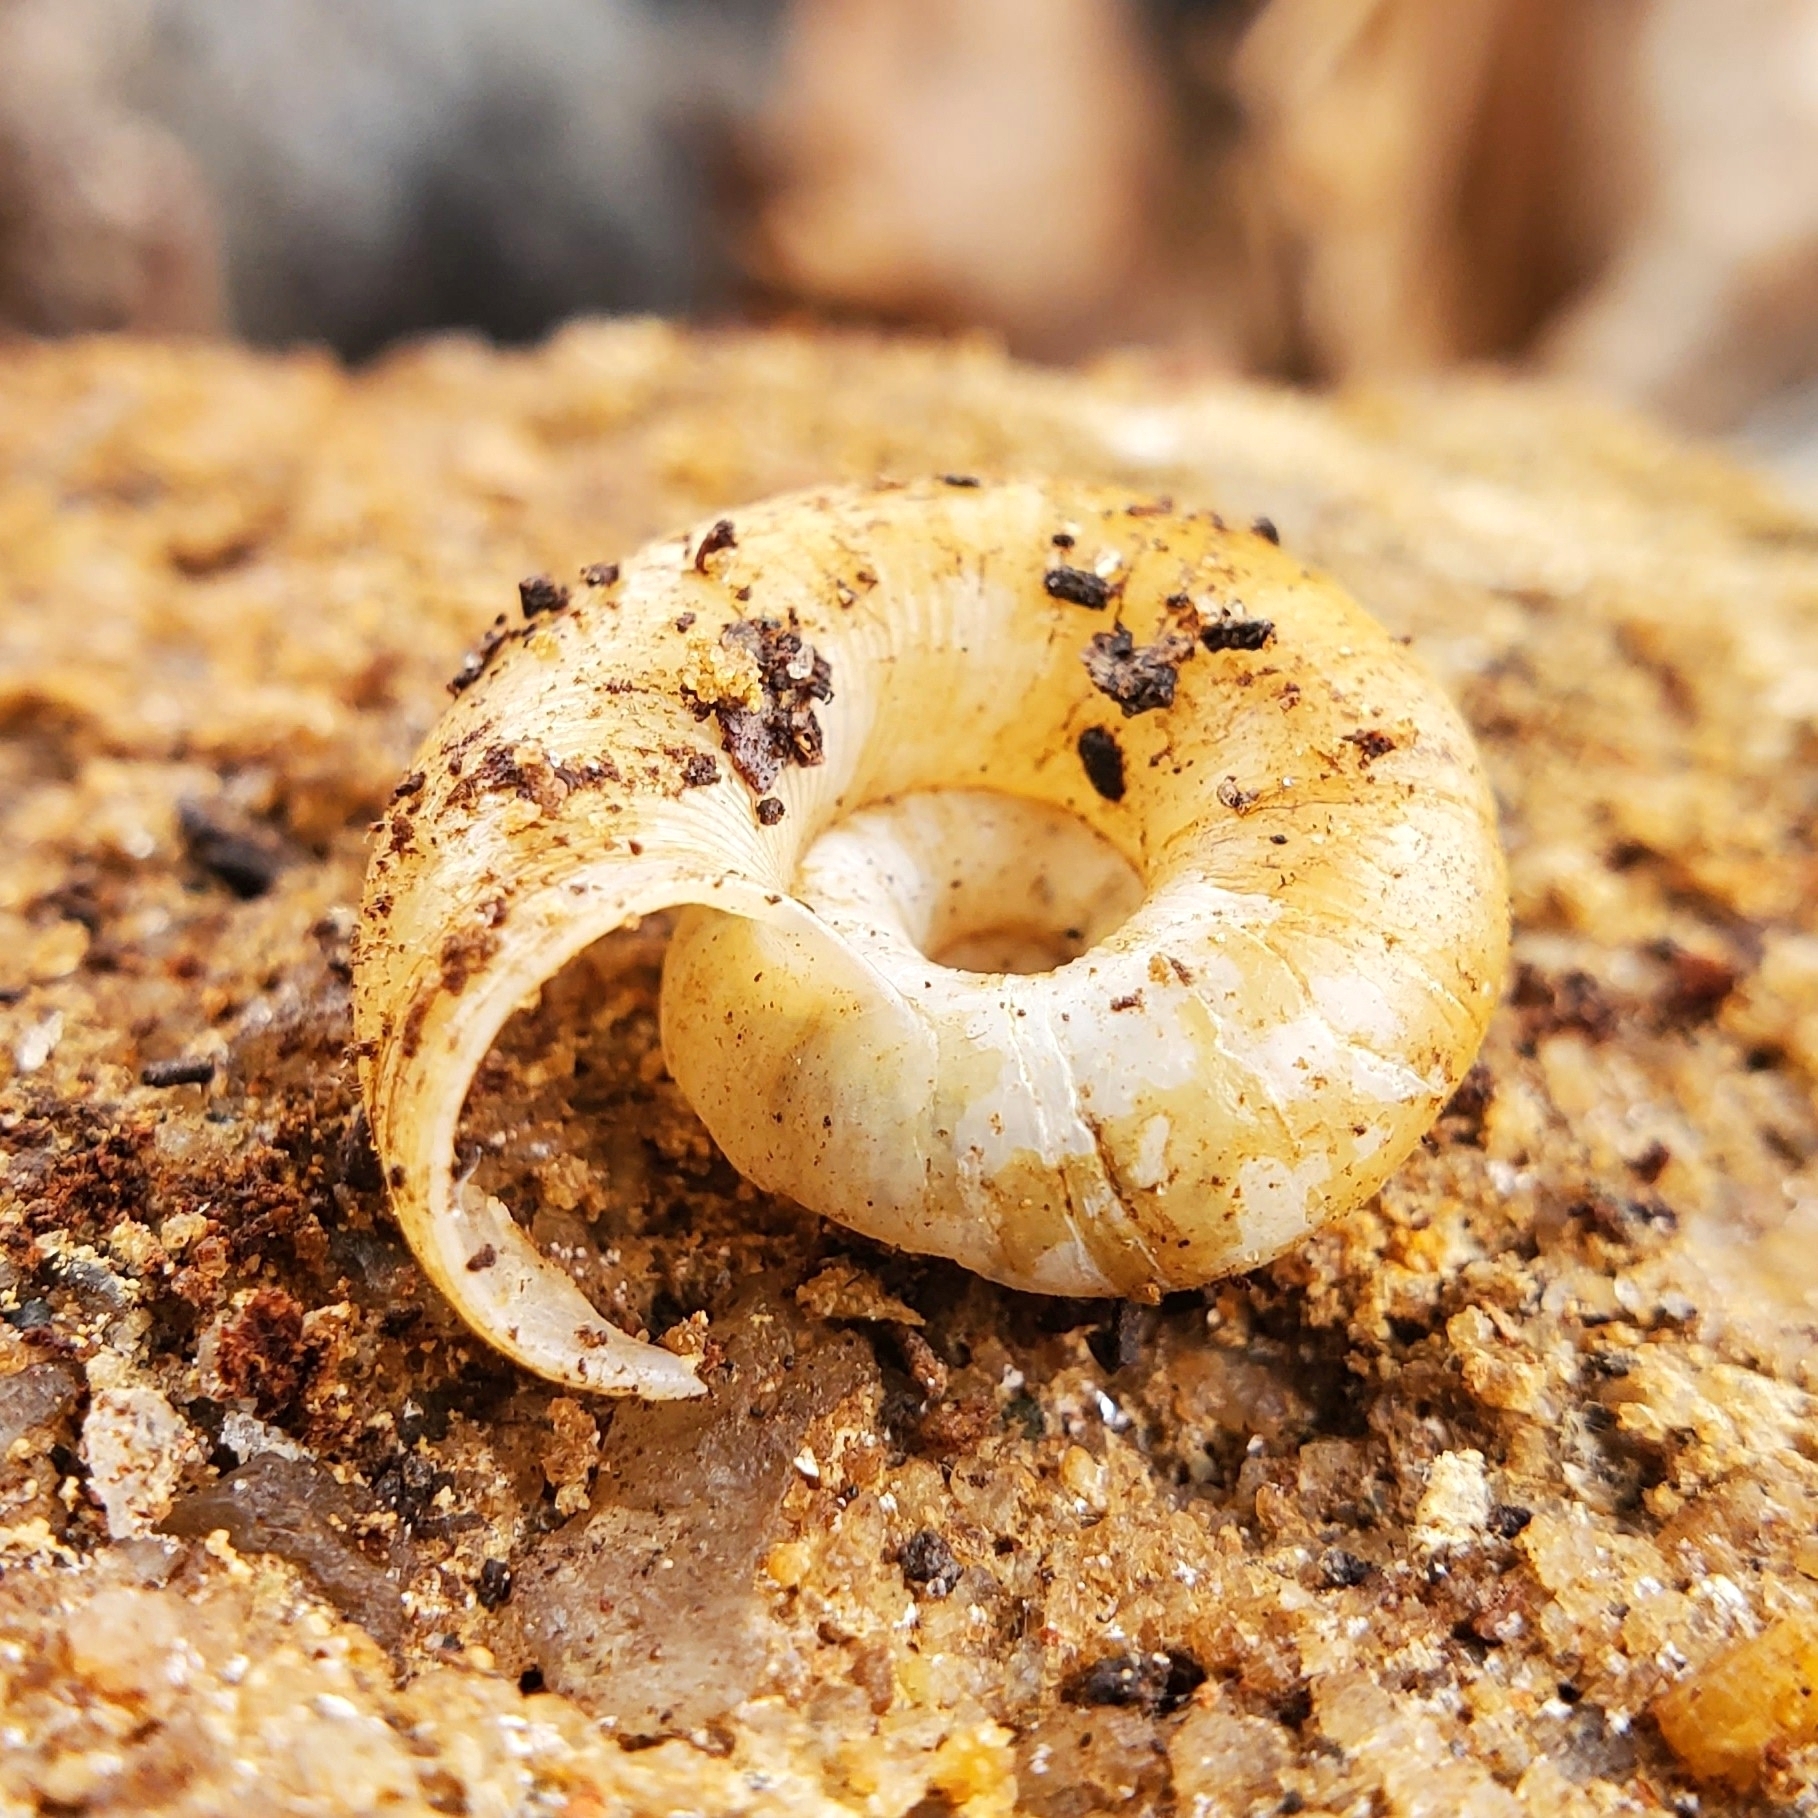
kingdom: Animalia
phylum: Mollusca
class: Gastropoda
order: Stylommatophora
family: Haplotrematidae
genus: Haplotrema
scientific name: Haplotrema concavum
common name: Gray-foot lancetooth
